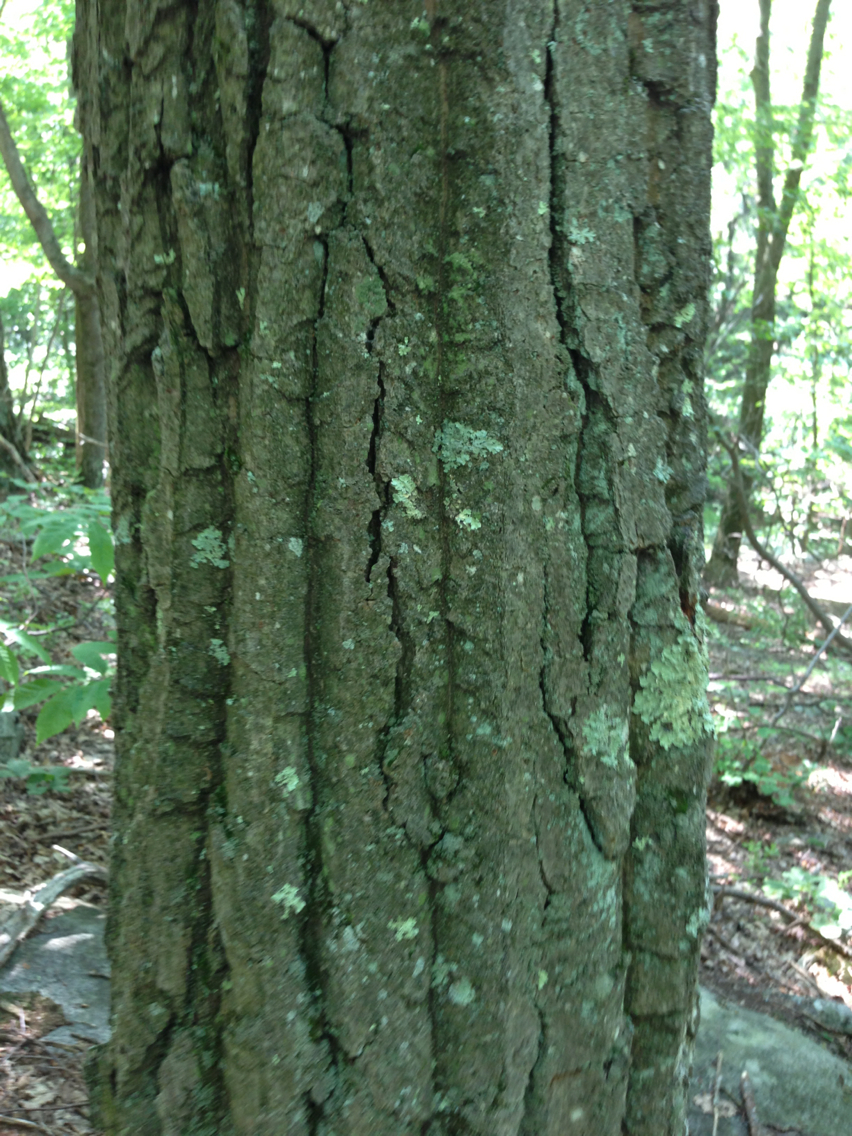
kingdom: Plantae
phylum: Tracheophyta
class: Magnoliopsida
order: Fagales
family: Fagaceae
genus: Quercus
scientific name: Quercus montana
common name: Chestnut oak
